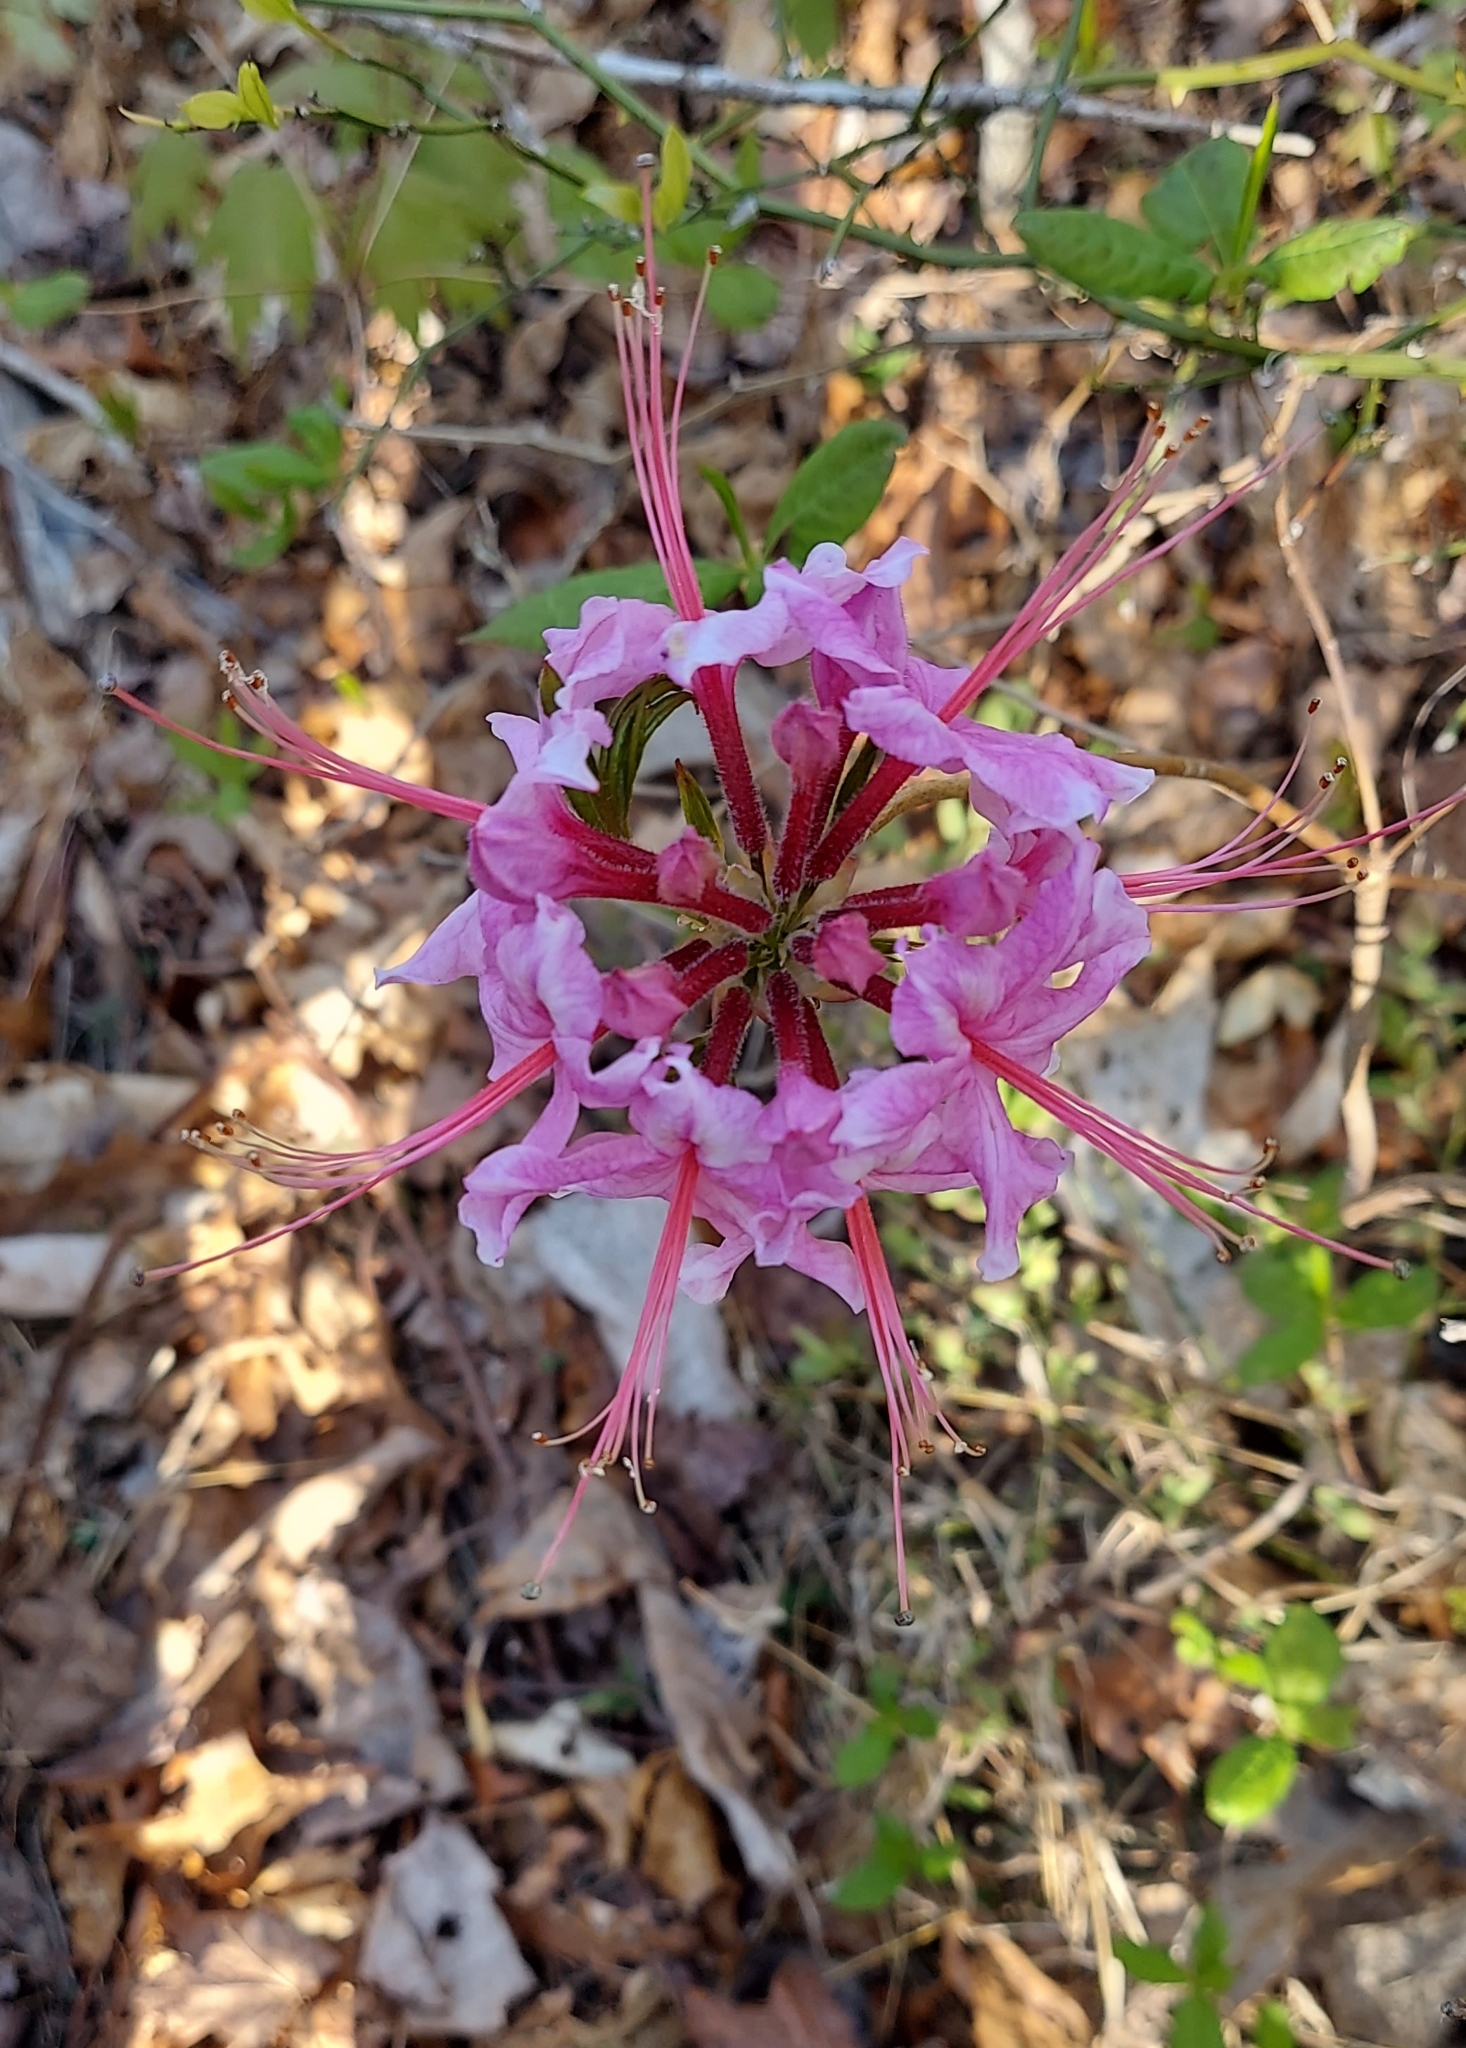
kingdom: Plantae
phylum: Tracheophyta
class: Magnoliopsida
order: Ericales
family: Ericaceae
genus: Rhododendron
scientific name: Rhododendron periclymenoides
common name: Election-pink
